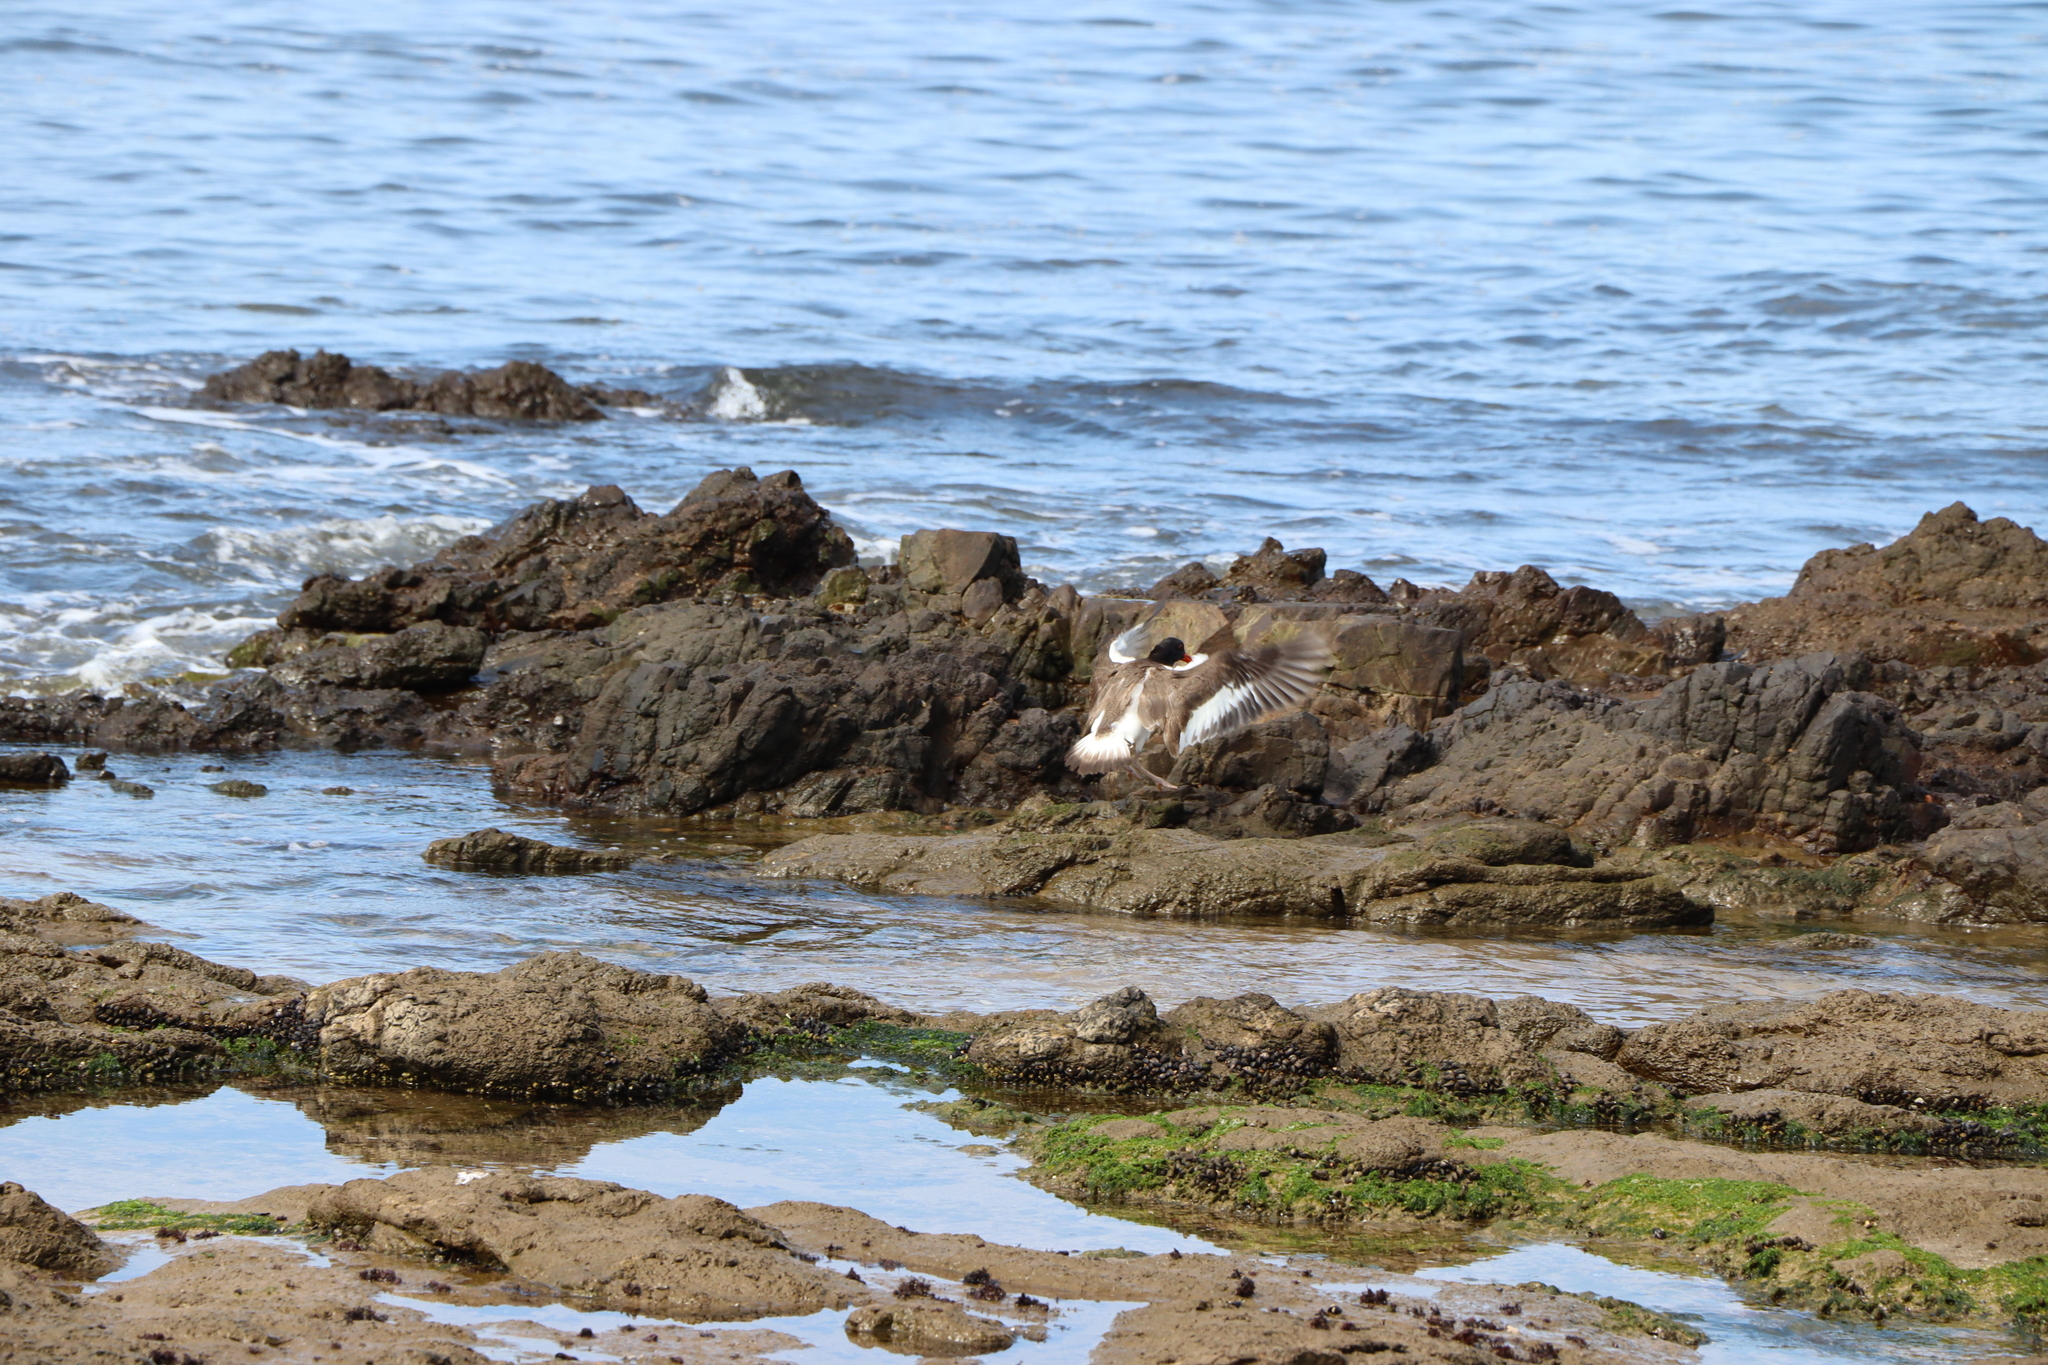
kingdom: Animalia
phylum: Chordata
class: Aves
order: Charadriiformes
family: Haematopodidae
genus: Haematopus
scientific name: Haematopus palliatus
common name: American oystercatcher
